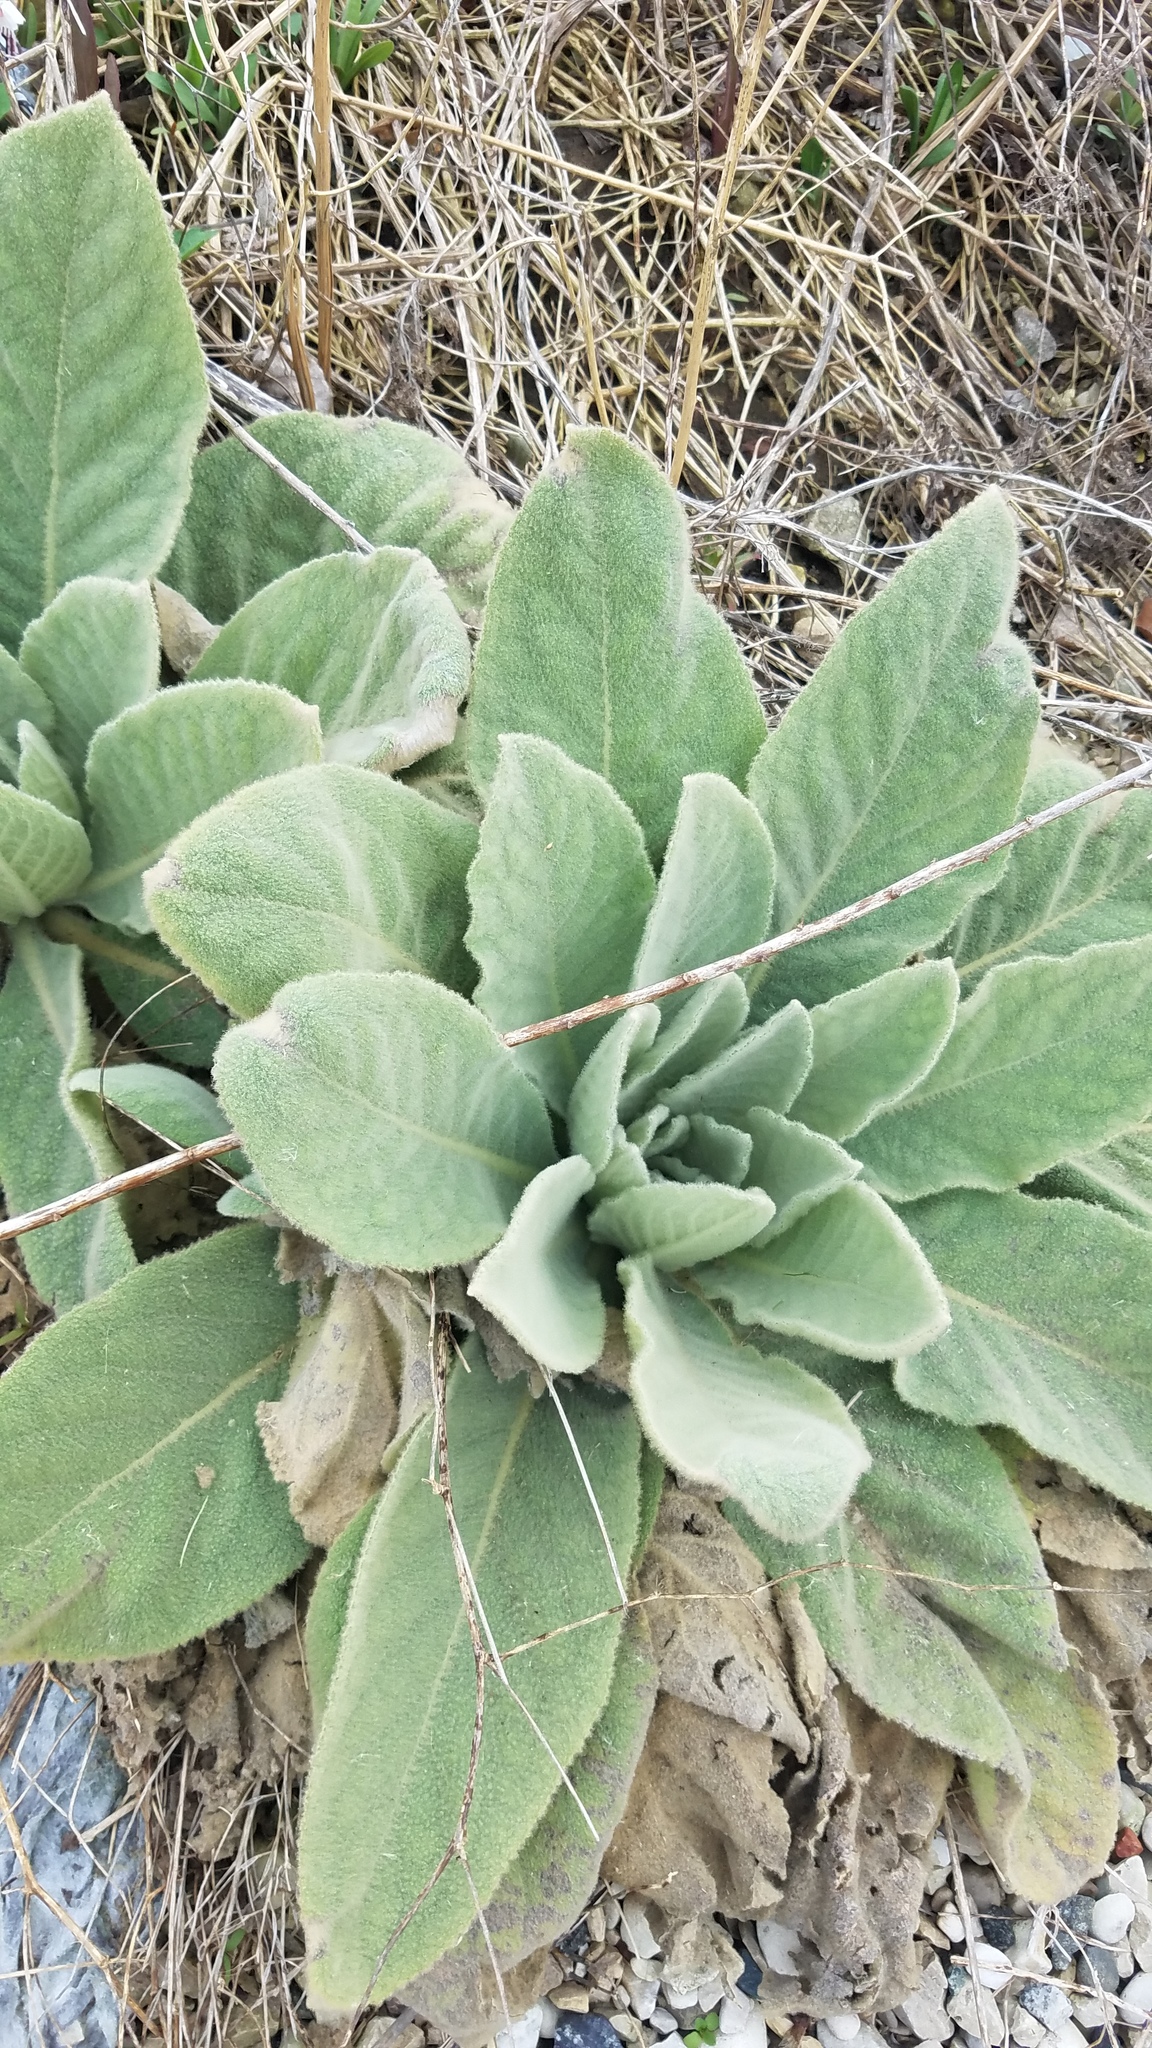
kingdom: Plantae
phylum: Tracheophyta
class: Magnoliopsida
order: Lamiales
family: Scrophulariaceae
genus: Verbascum
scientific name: Verbascum thapsus
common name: Common mullein
